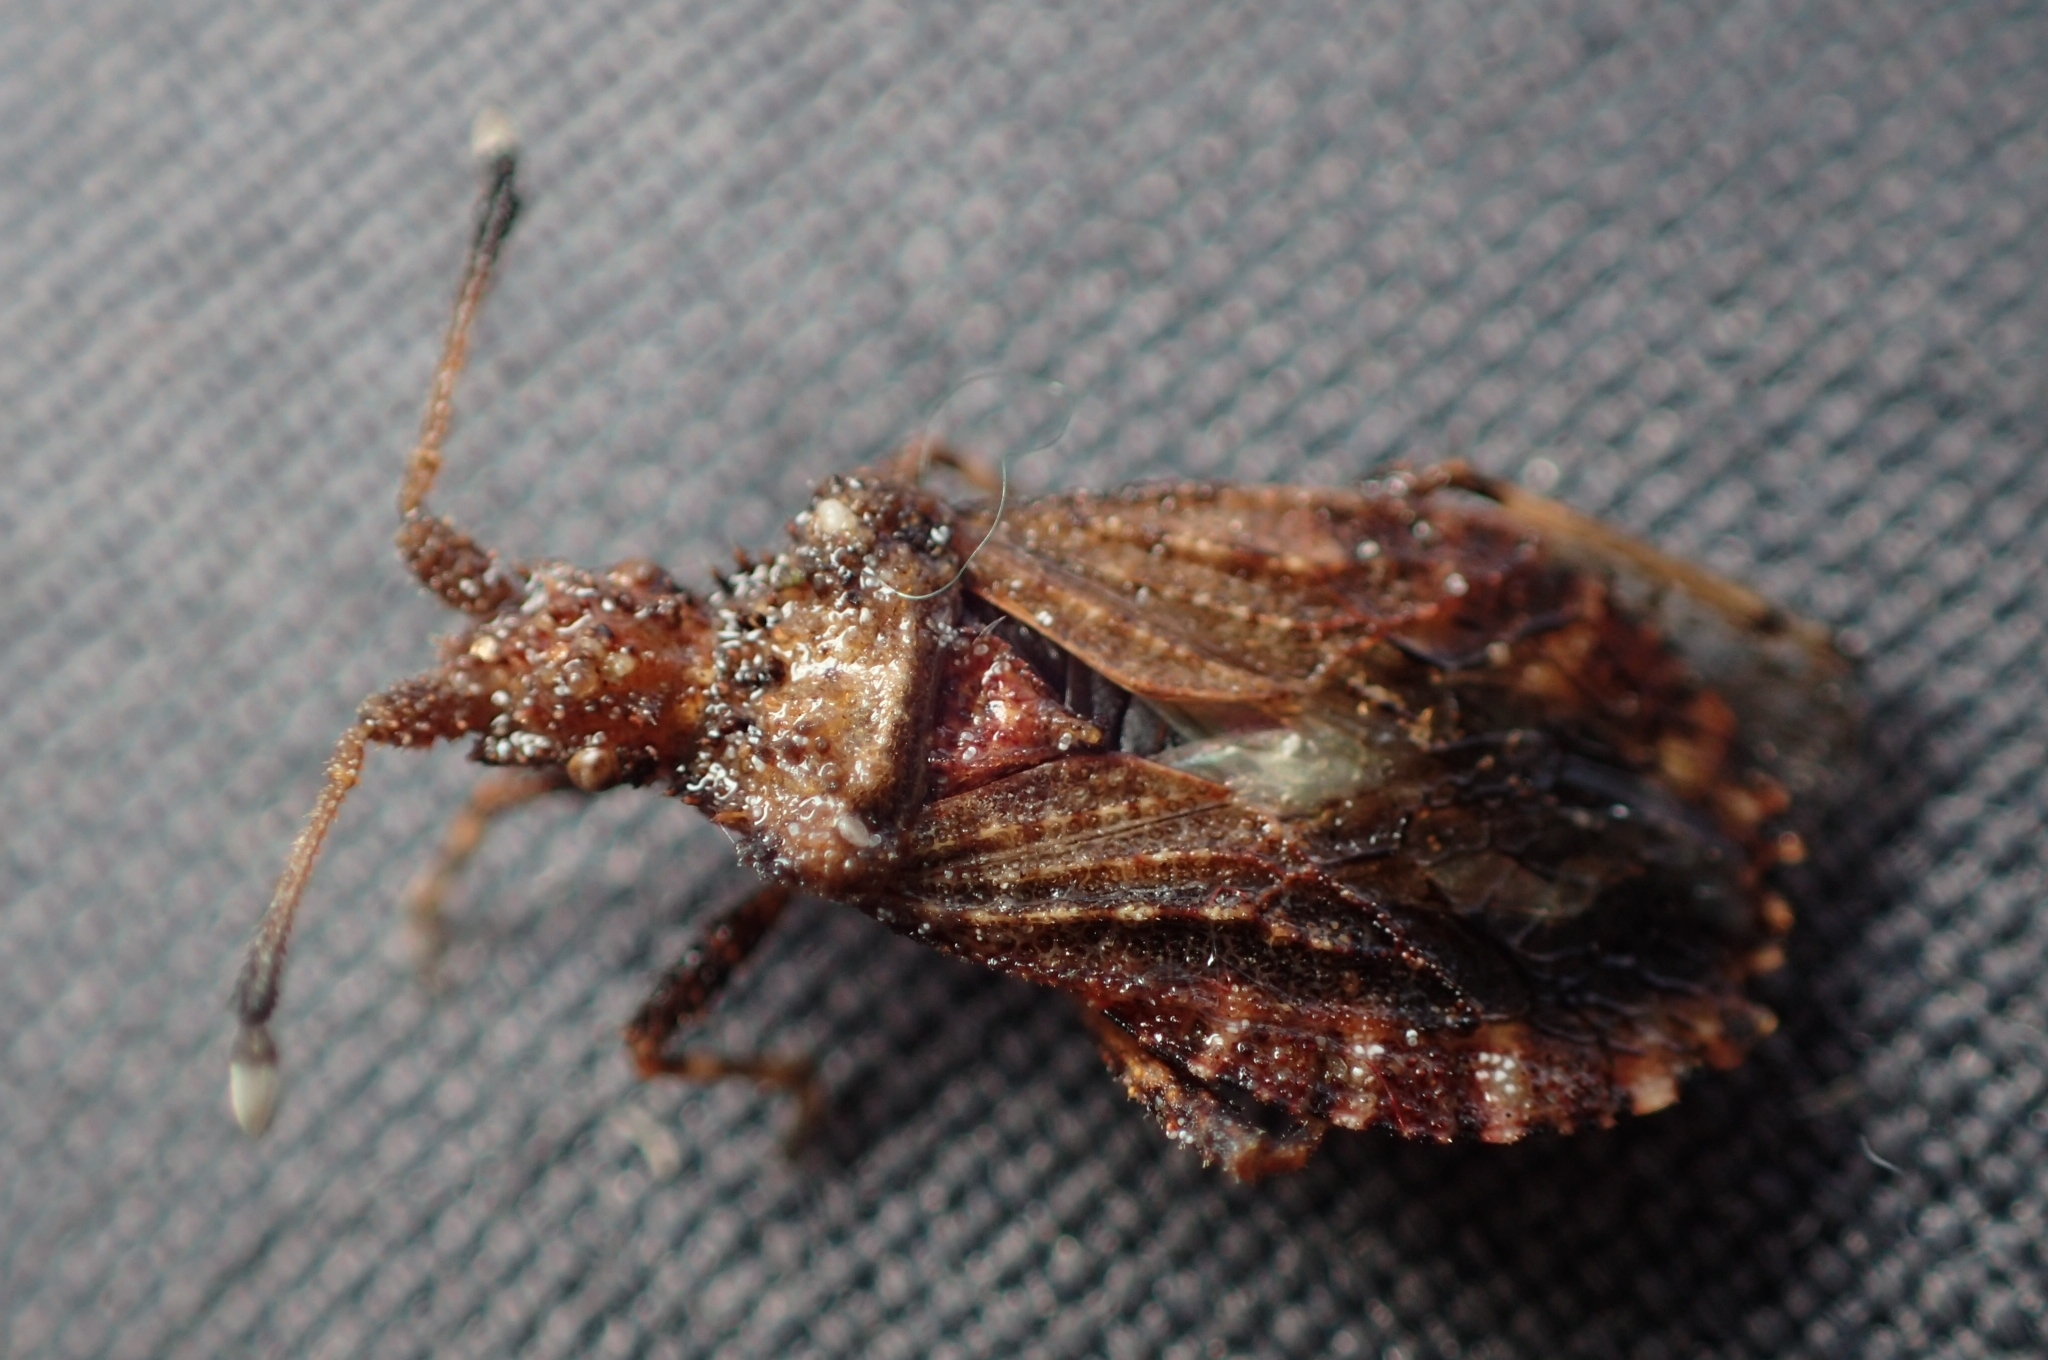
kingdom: Animalia
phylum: Arthropoda
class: Insecta
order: Hemiptera
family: Coreidae
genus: Arenocoris
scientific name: Arenocoris waltlii
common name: Breckland leatherbug
